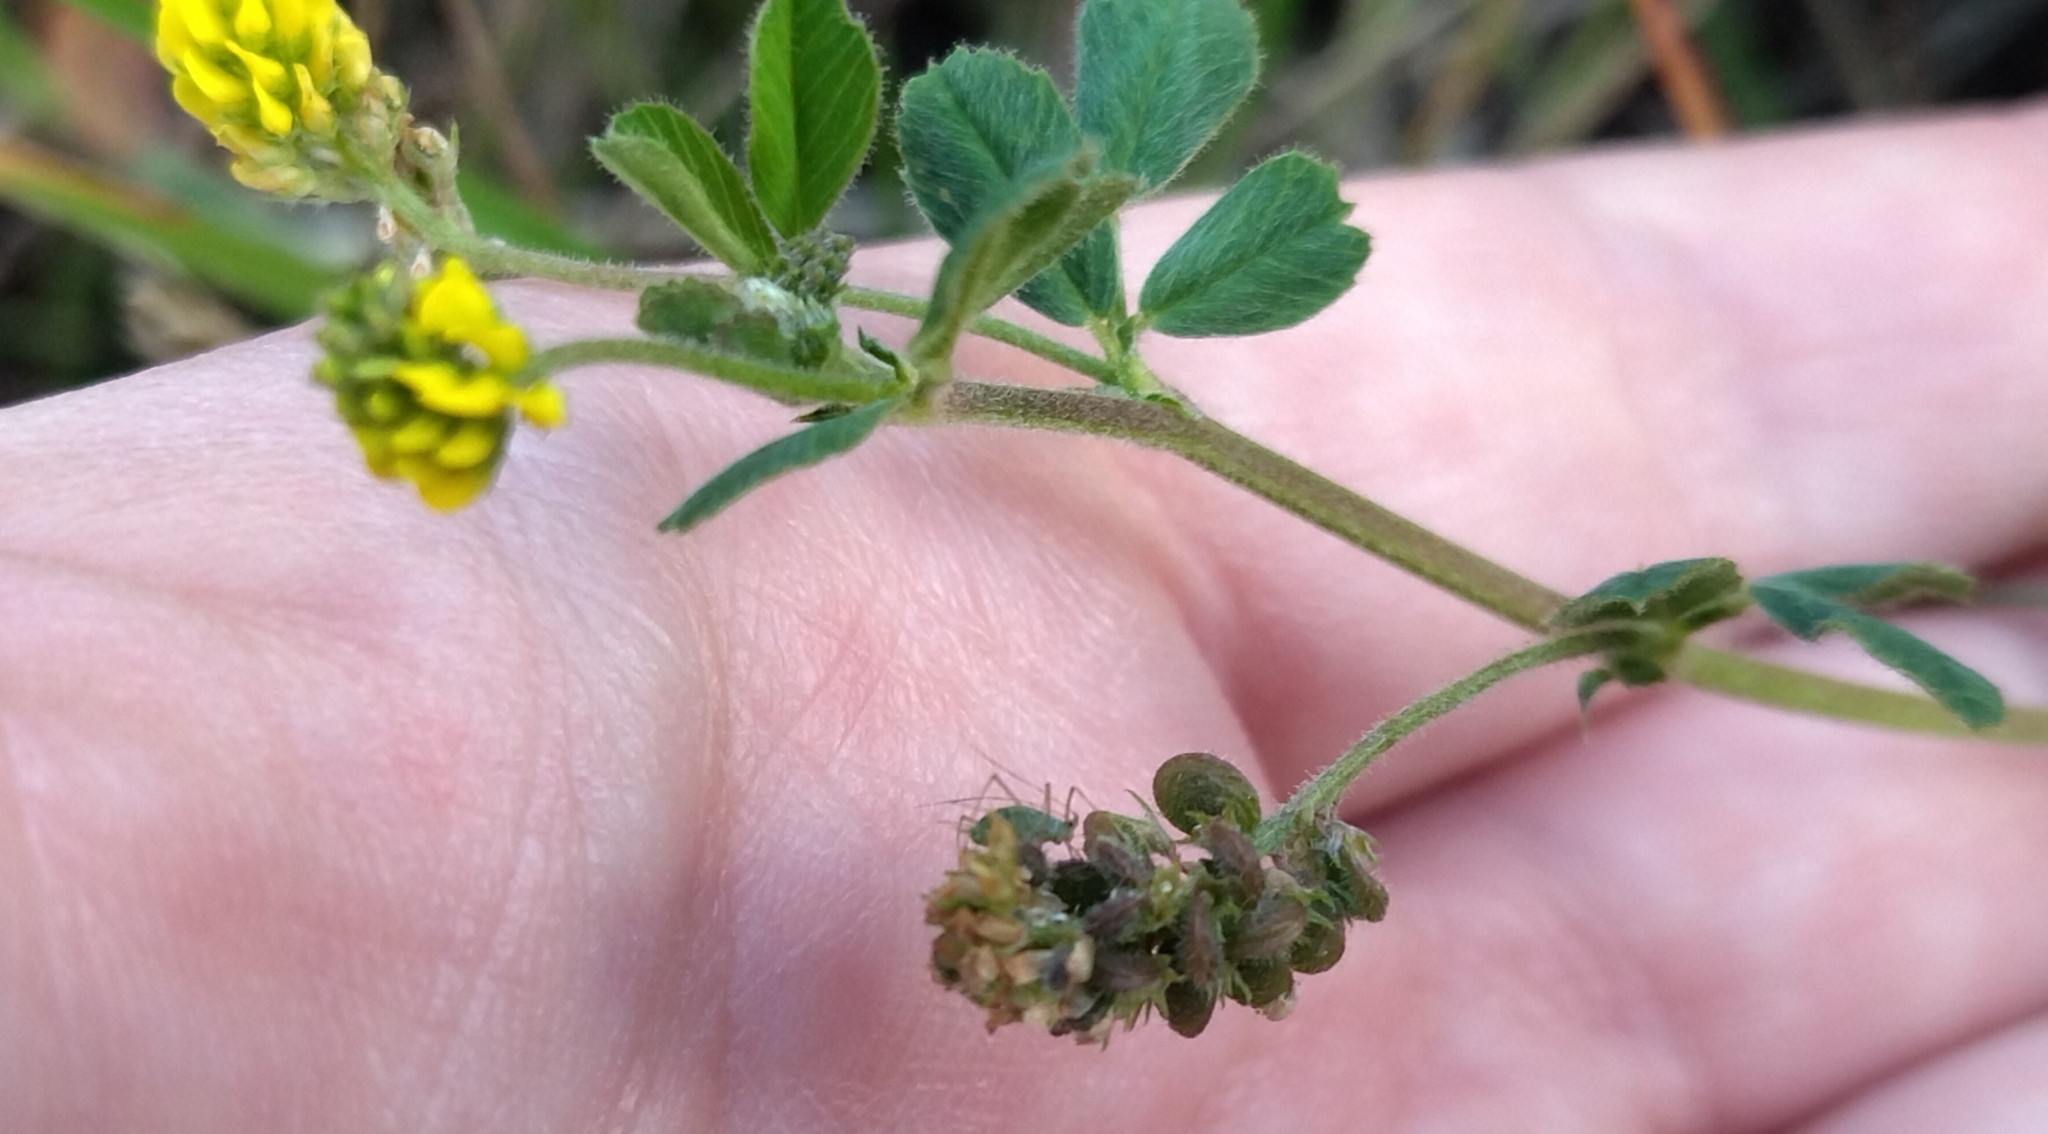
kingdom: Plantae
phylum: Tracheophyta
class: Magnoliopsida
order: Fabales
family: Fabaceae
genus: Medicago
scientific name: Medicago lupulina
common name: Black medick
